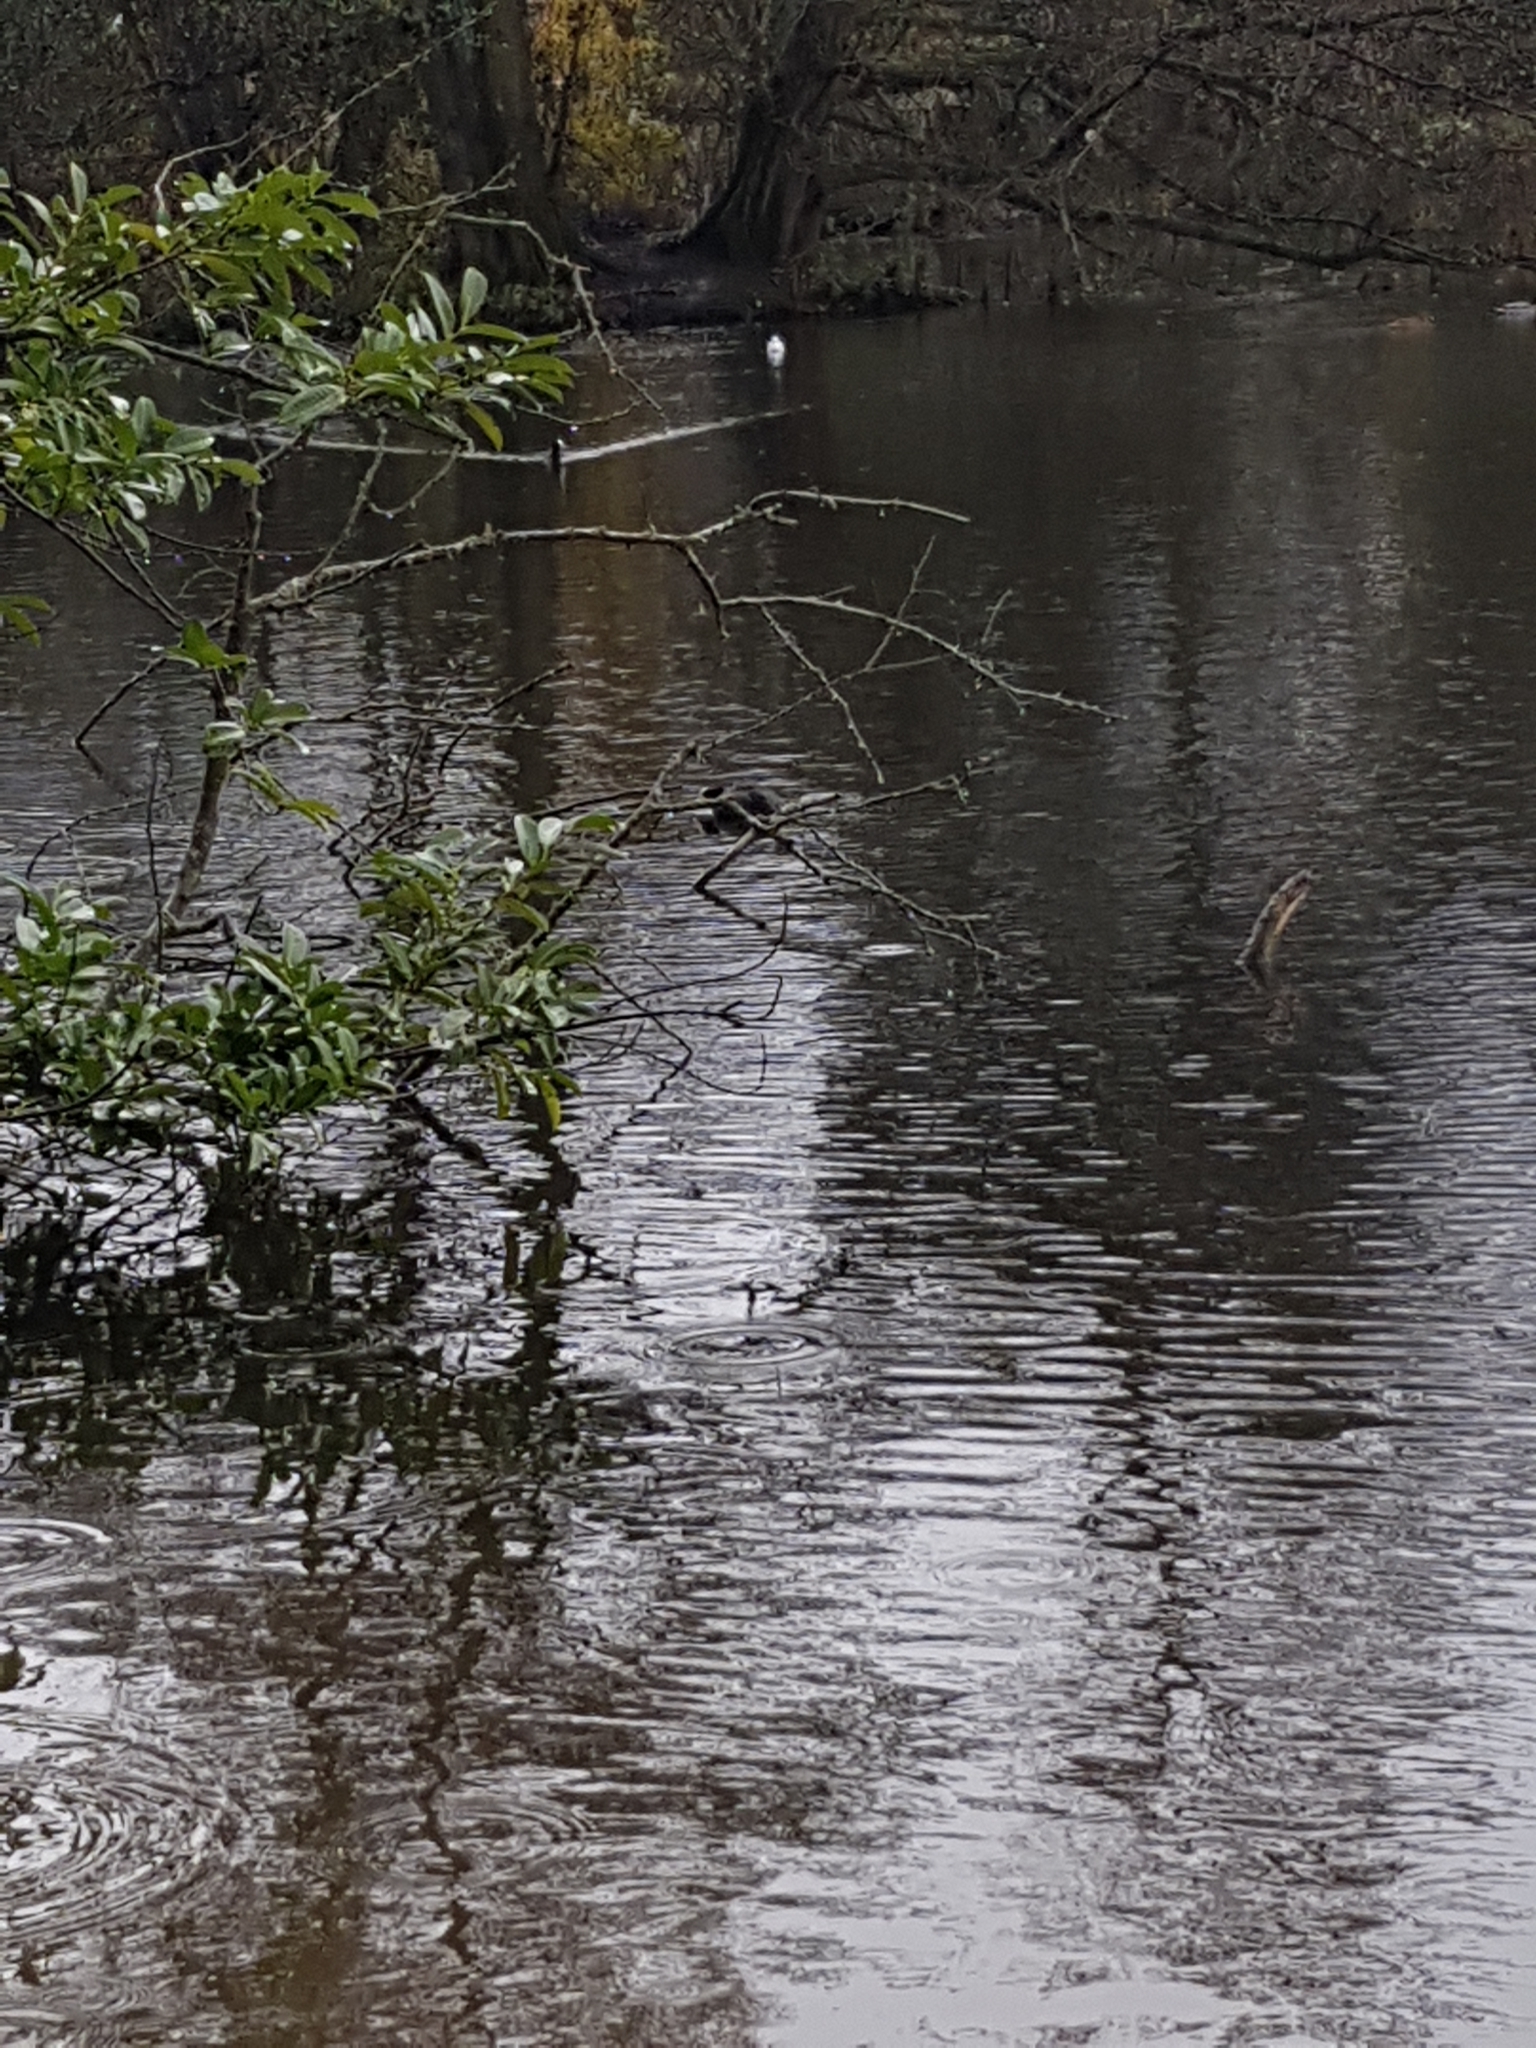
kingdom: Animalia
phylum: Chordata
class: Aves
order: Gruiformes
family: Rallidae
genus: Fulica
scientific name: Fulica atra
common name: Eurasian coot
